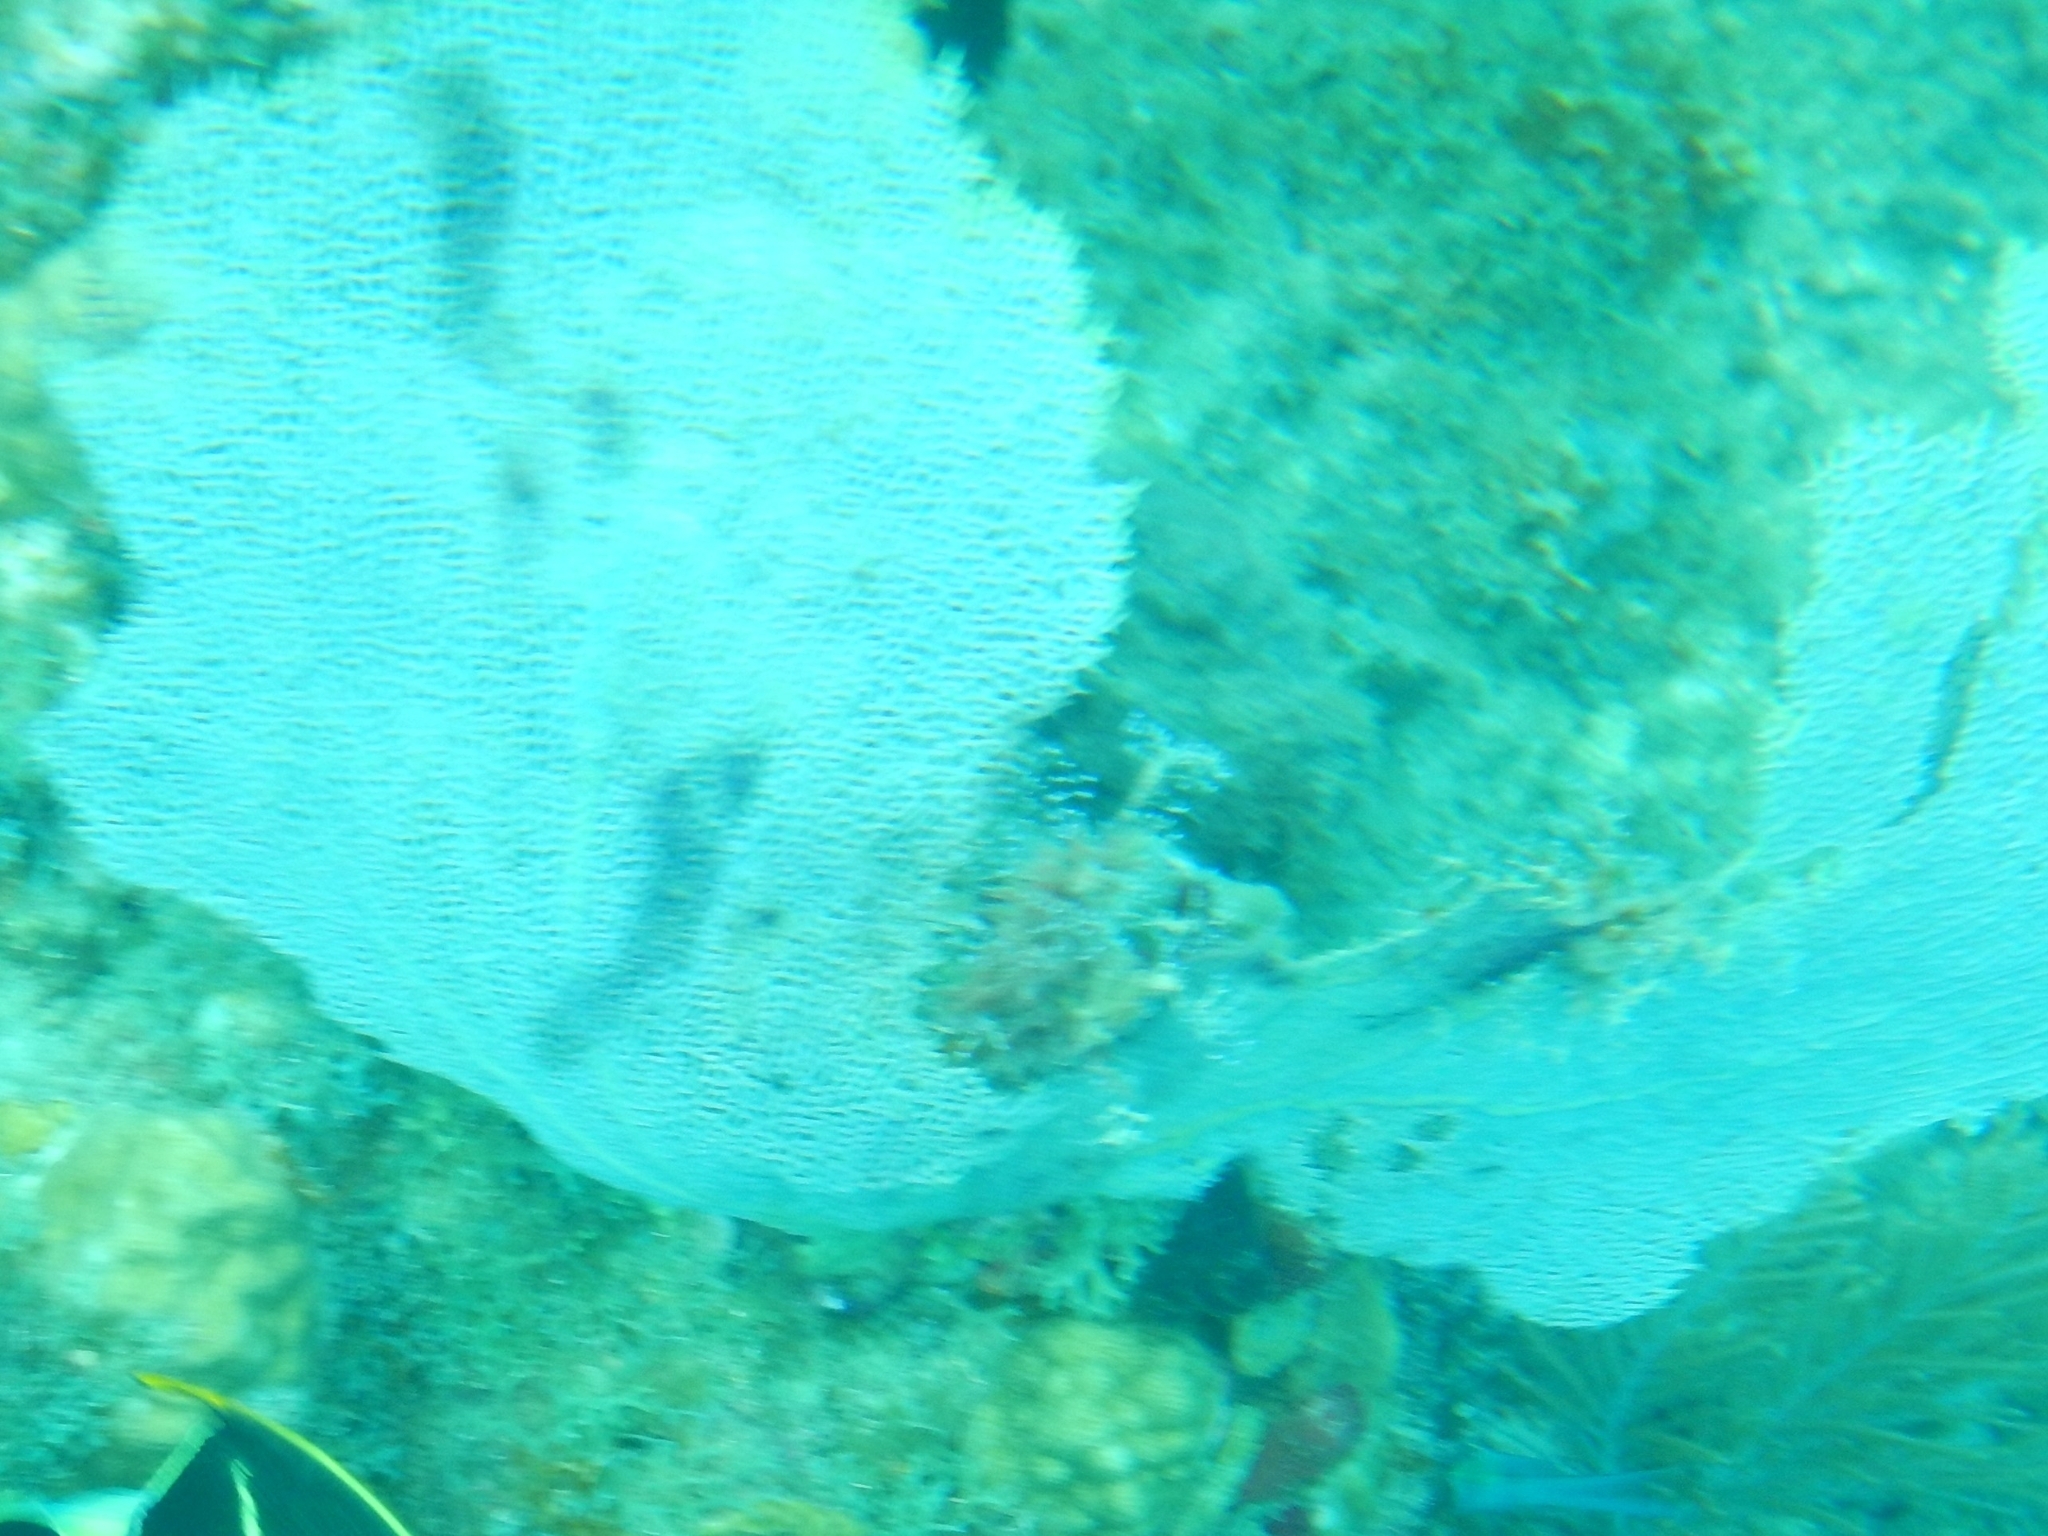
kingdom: Animalia
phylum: Cnidaria
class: Anthozoa
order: Malacalcyonacea
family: Gorgoniidae
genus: Gorgonia
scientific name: Gorgonia ventalina
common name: Common sea fan
